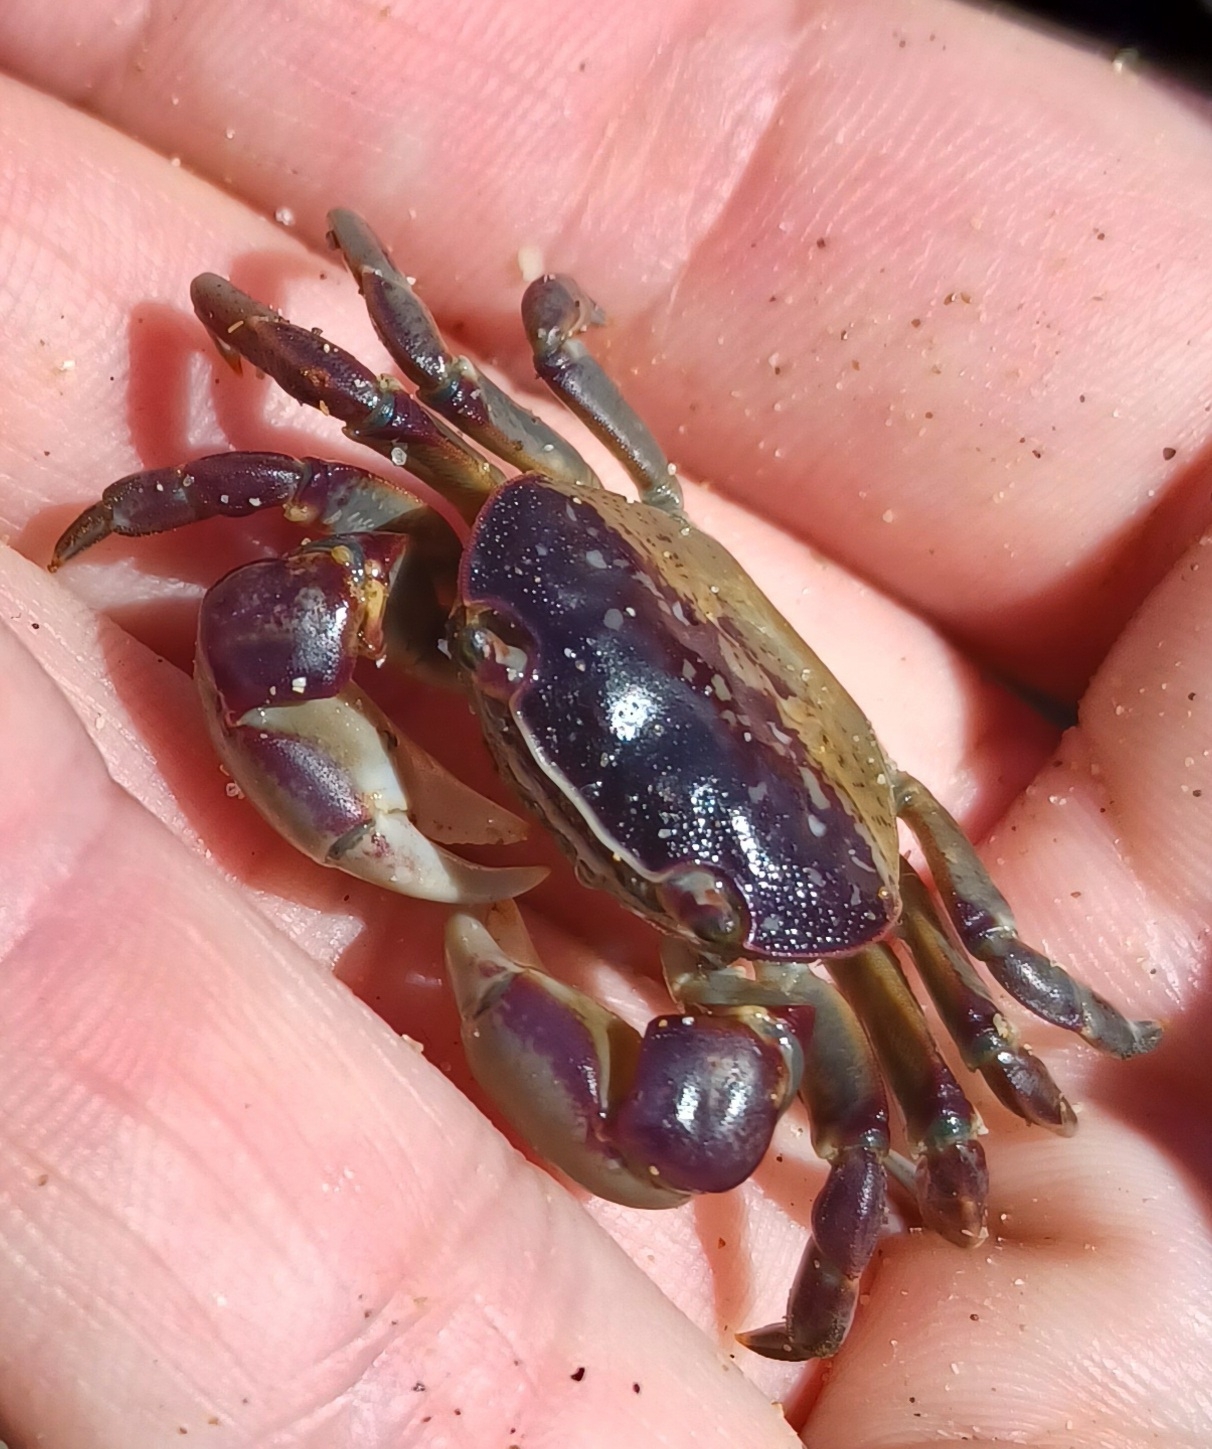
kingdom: Animalia
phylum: Arthropoda
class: Malacostraca
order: Decapoda
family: Varunidae
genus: Cyclograpsus
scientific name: Cyclograpsus granulosus
